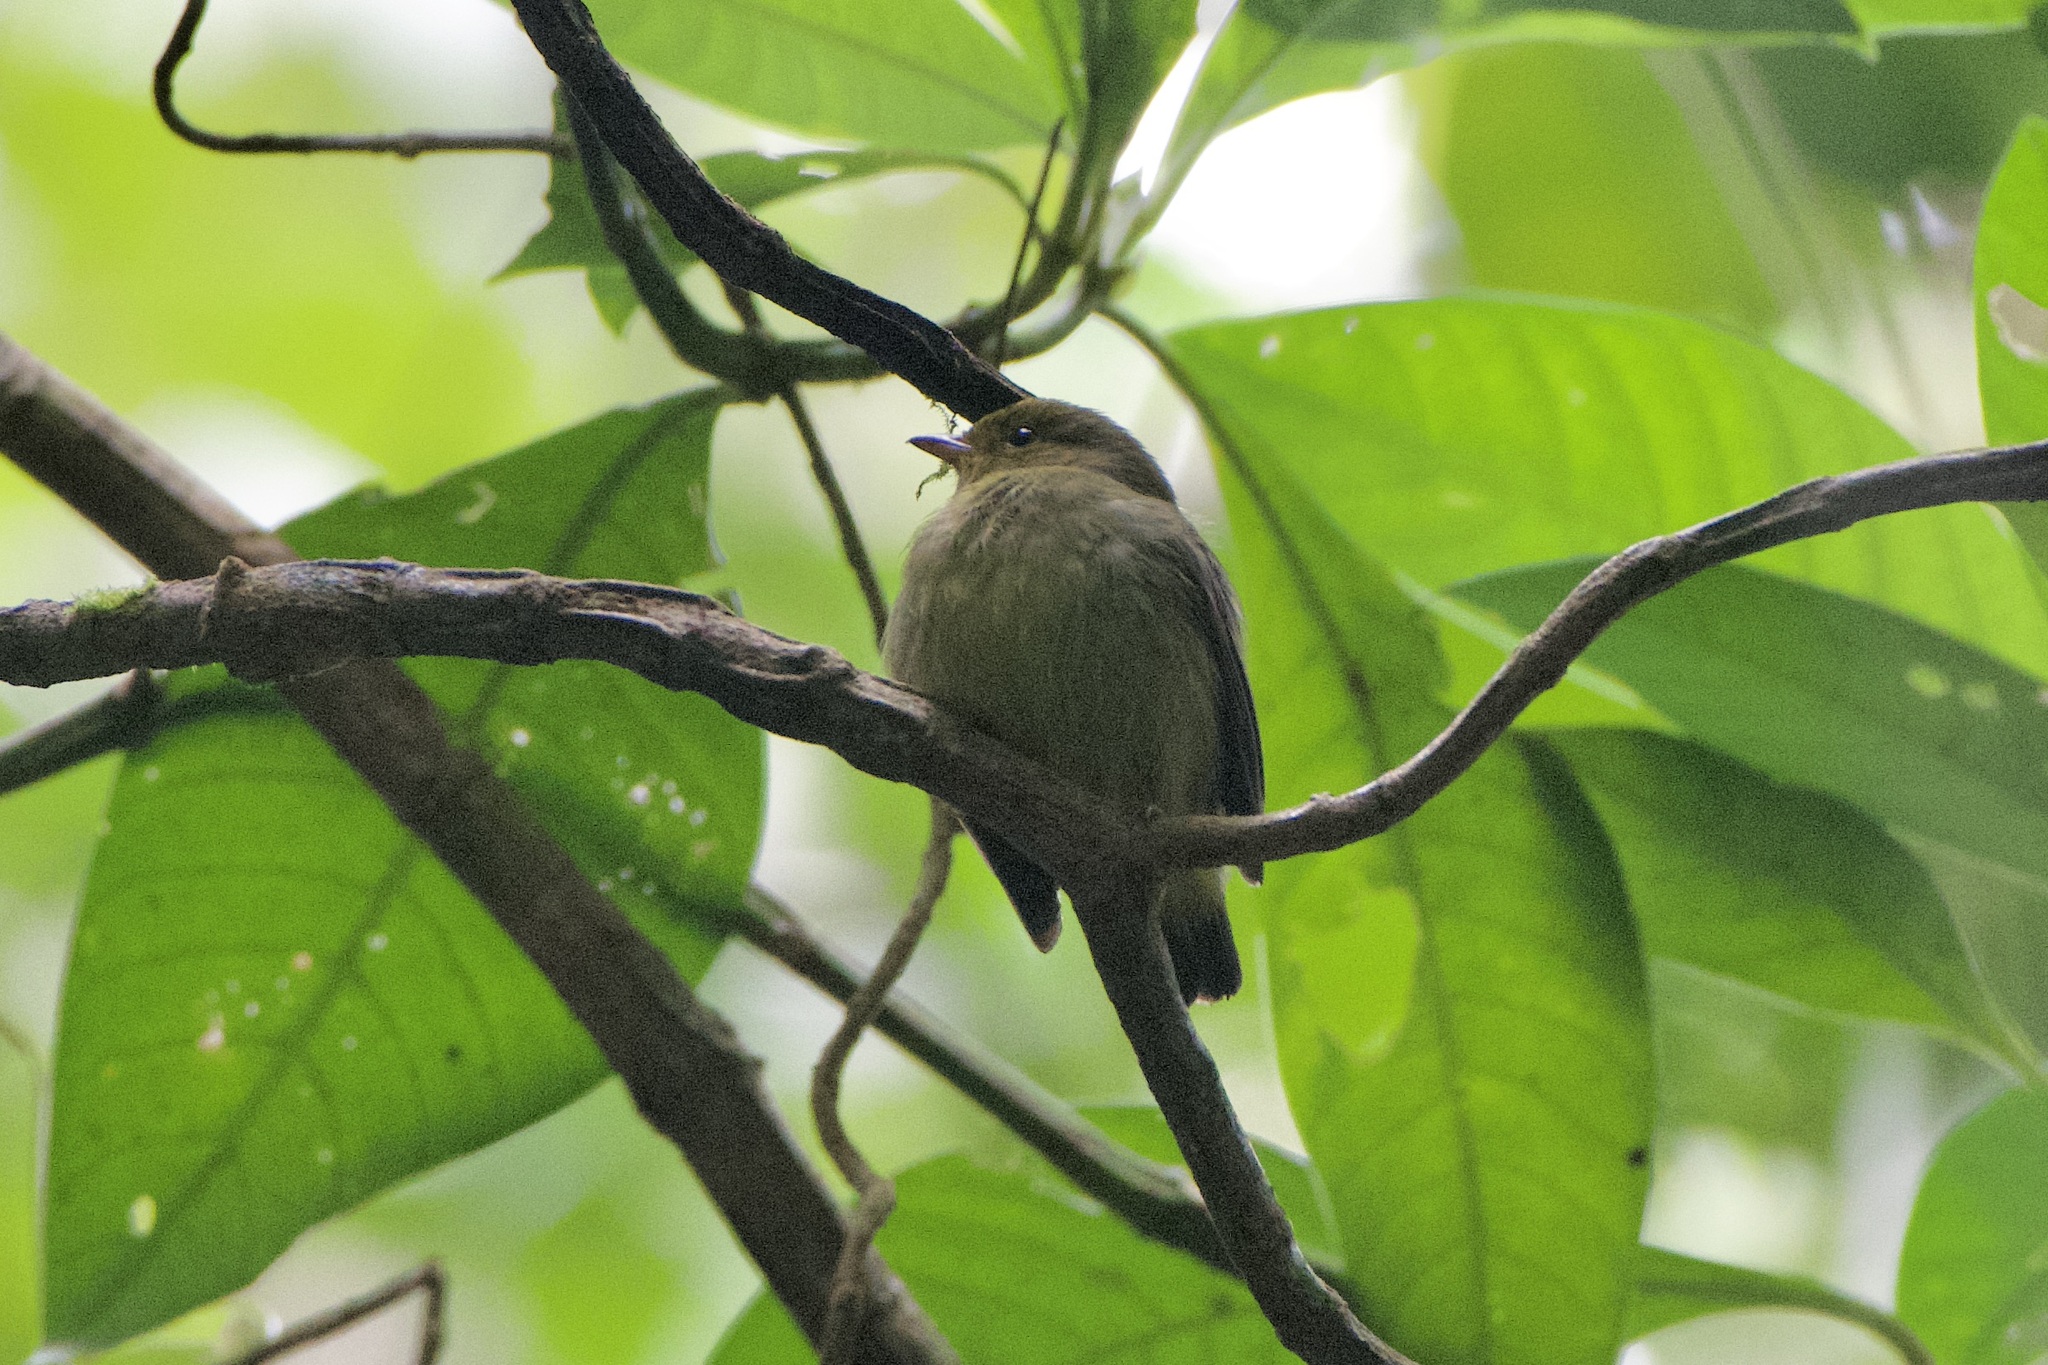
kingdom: Animalia
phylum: Chordata
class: Aves
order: Passeriformes
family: Pipridae
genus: Pipra
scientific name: Pipra mentalis
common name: Red-capped manakin
